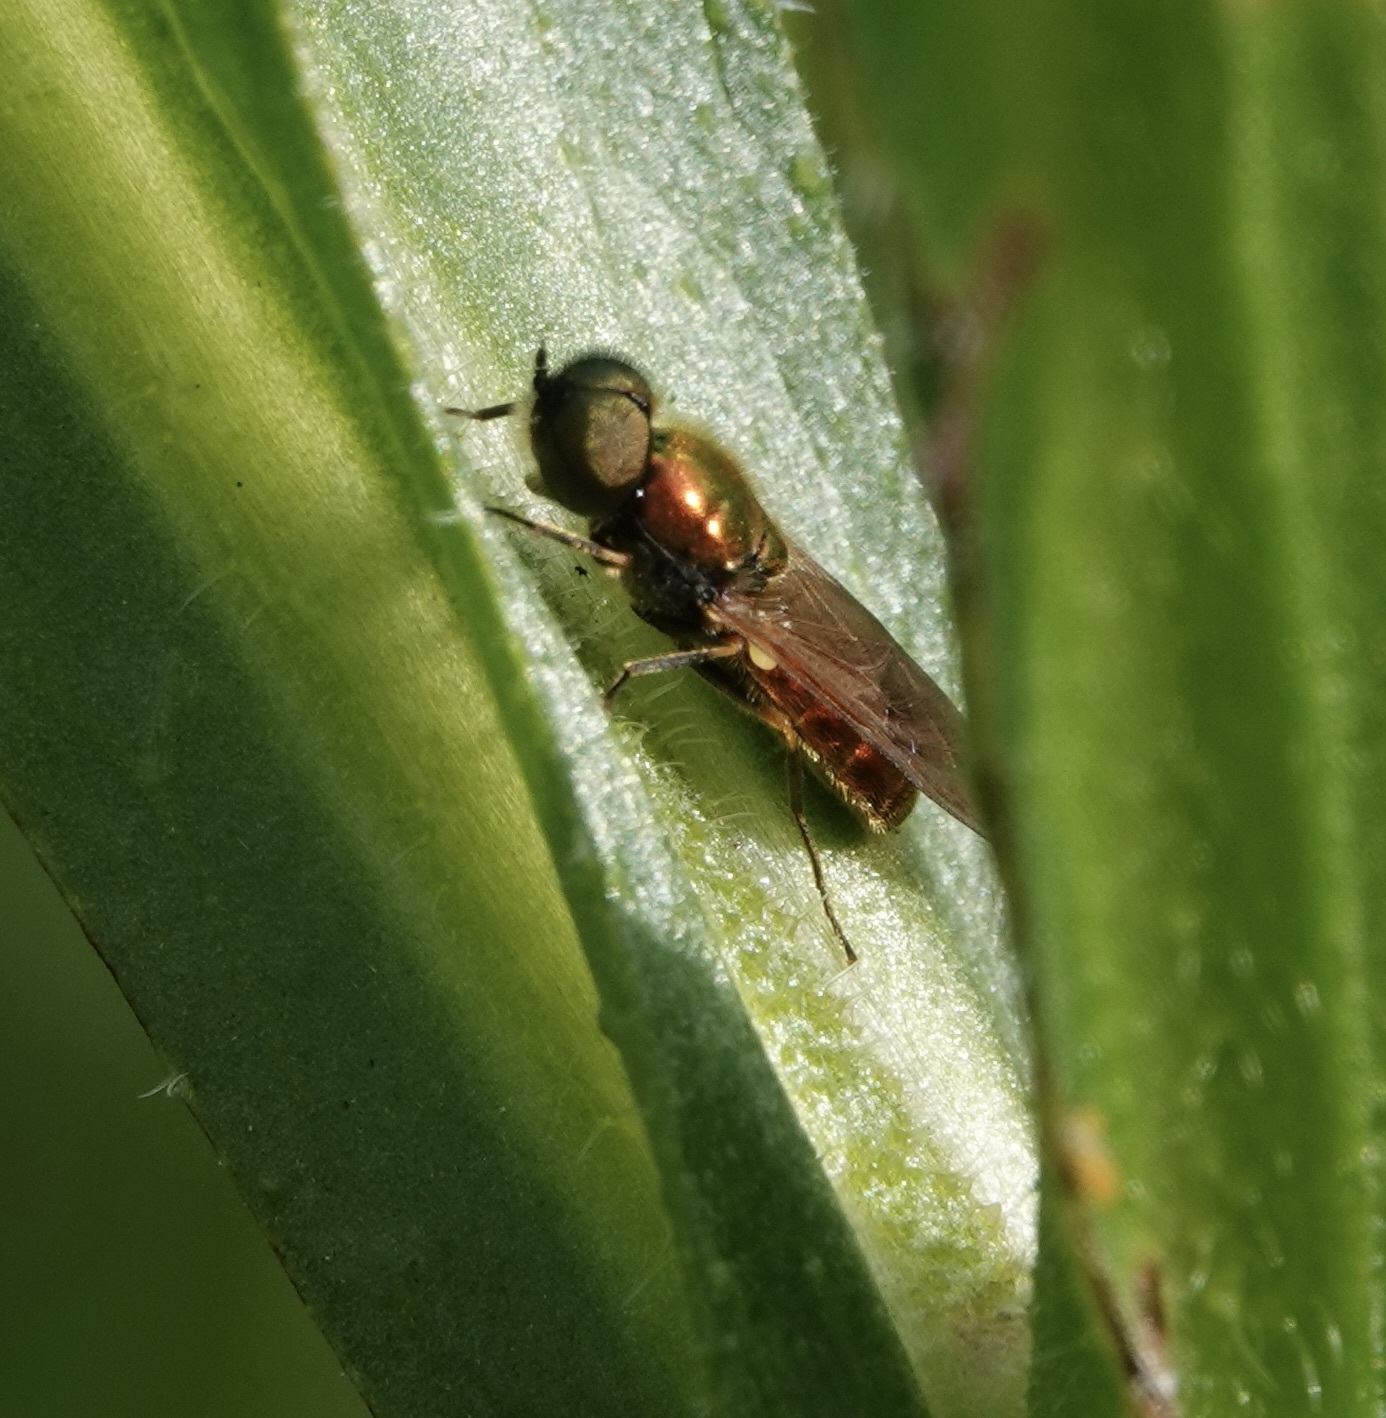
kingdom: Animalia
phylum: Arthropoda
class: Insecta
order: Diptera
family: Stratiomyidae
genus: Chloromyia
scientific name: Chloromyia formosa
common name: Soldier fly
